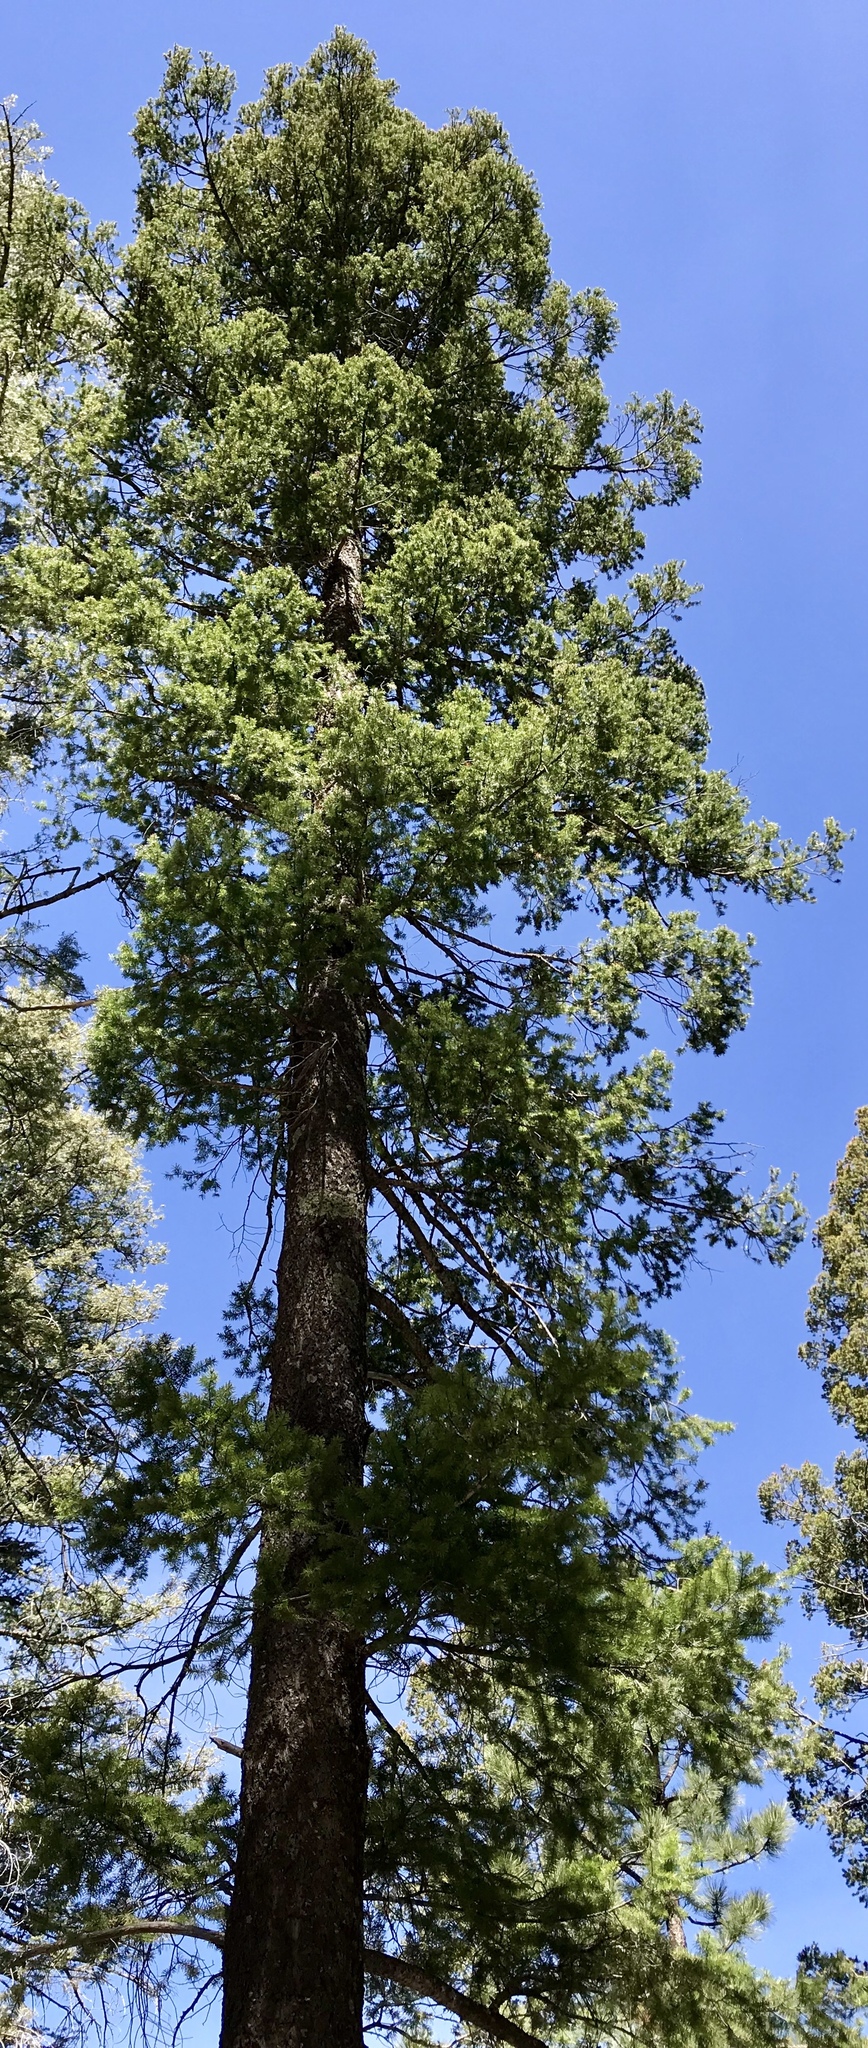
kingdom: Plantae
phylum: Tracheophyta
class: Pinopsida
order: Pinales
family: Pinaceae
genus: Pseudotsuga
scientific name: Pseudotsuga menziesii
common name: Douglas fir
